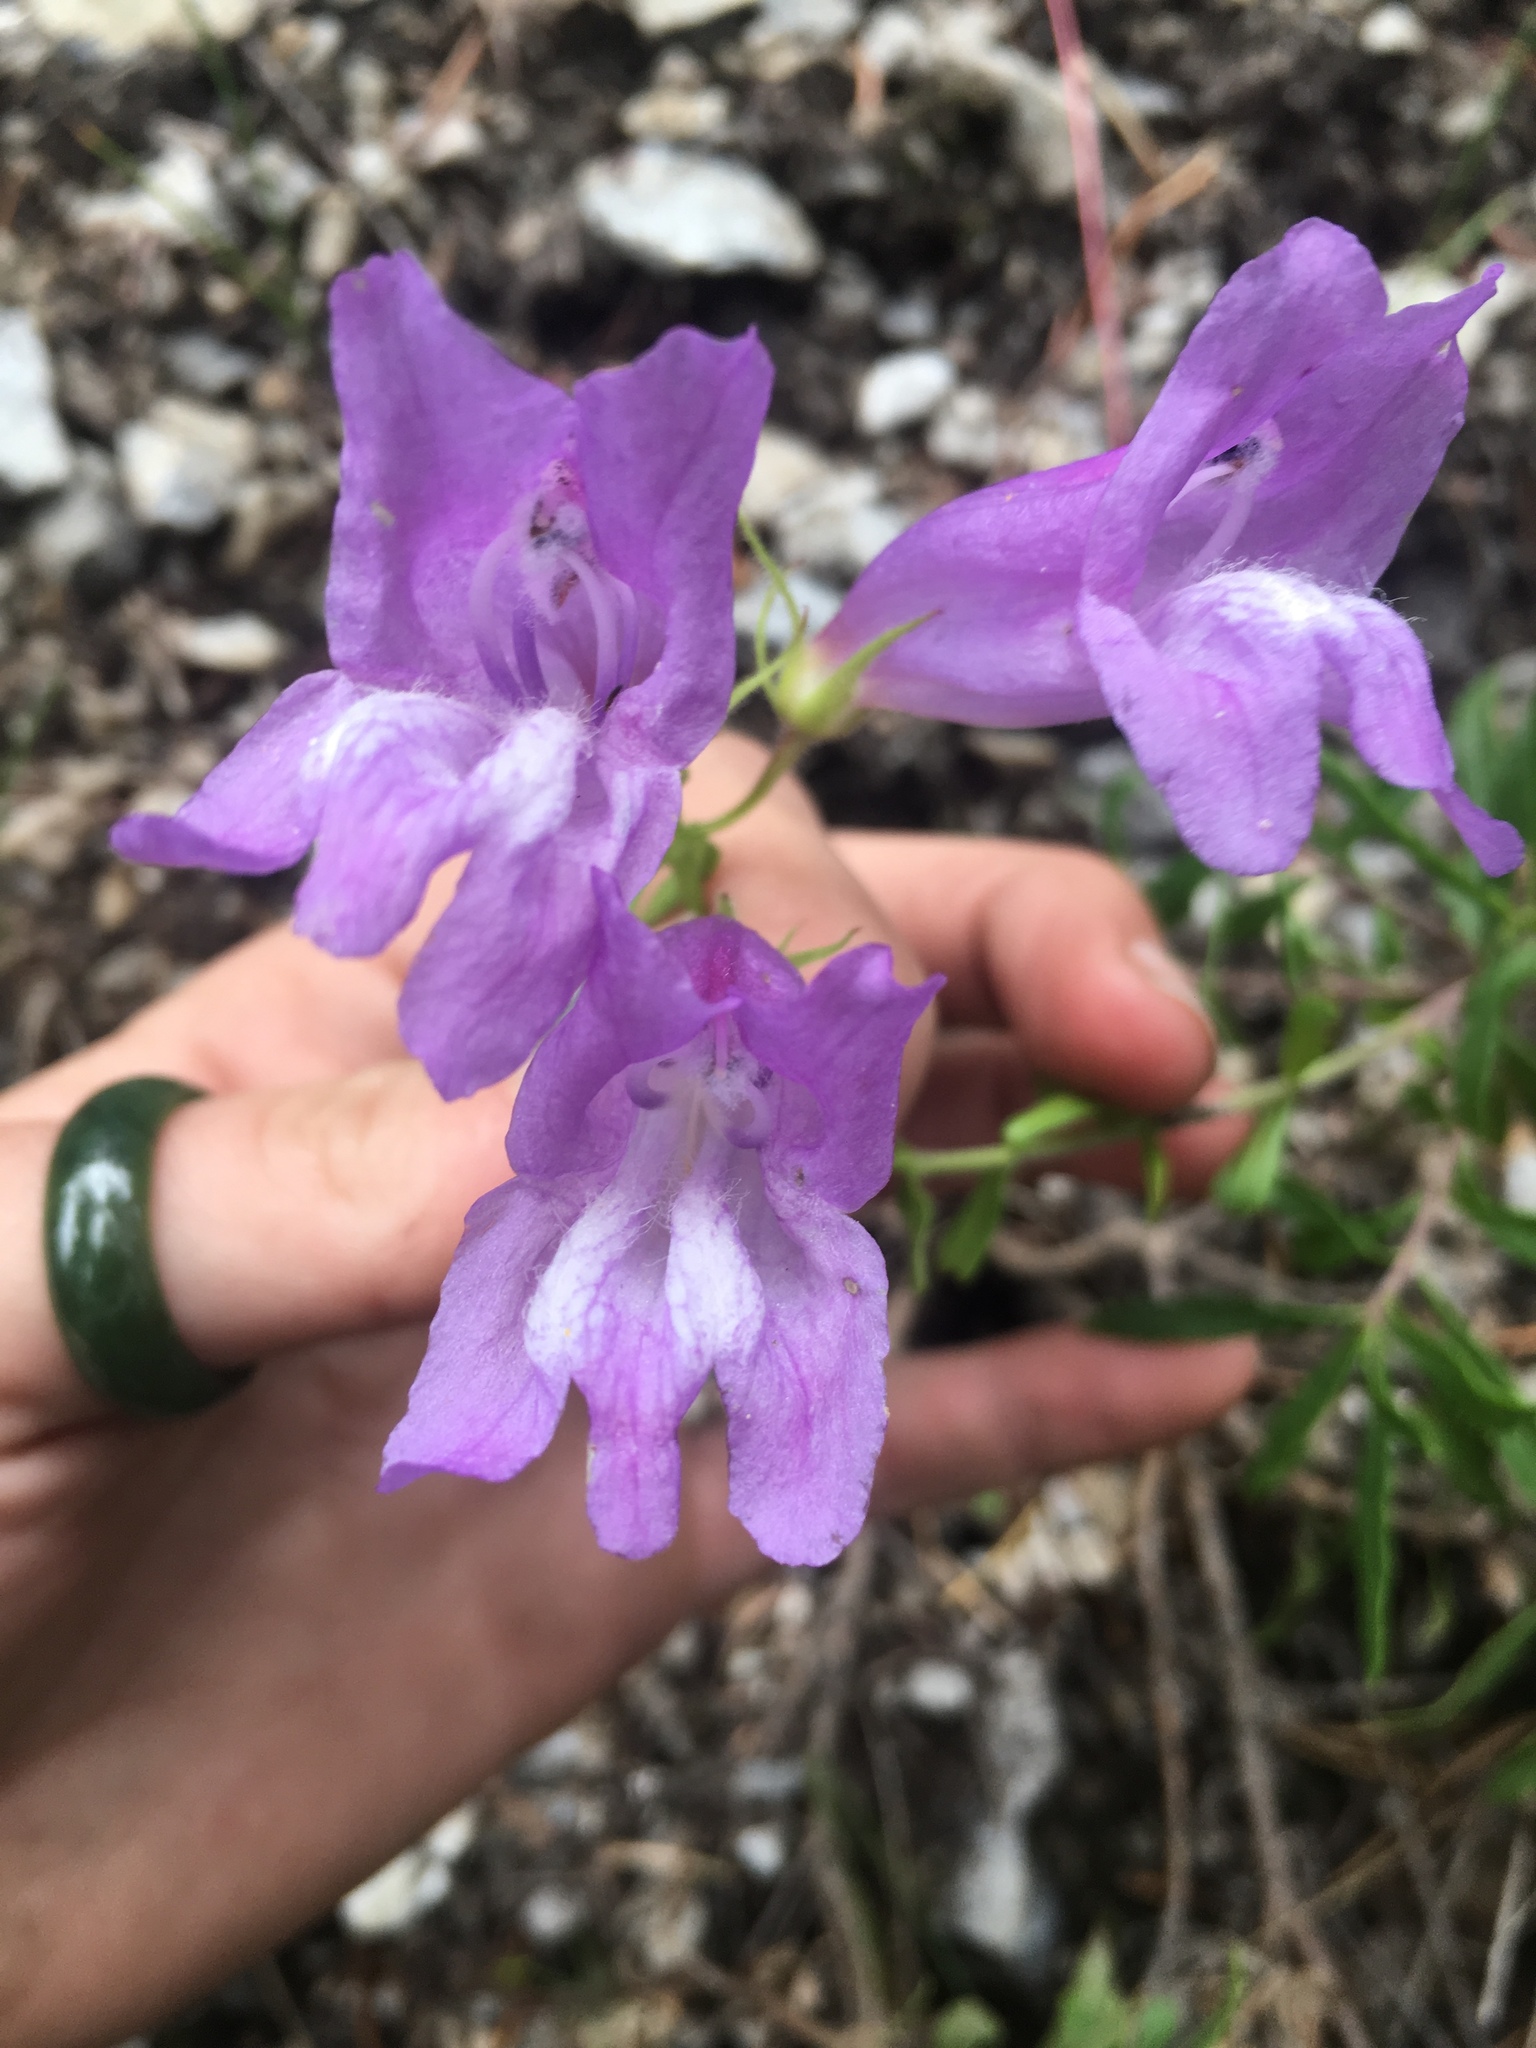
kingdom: Plantae
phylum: Tracheophyta
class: Magnoliopsida
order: Lamiales
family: Plantaginaceae
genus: Penstemon
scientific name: Penstemon fruticosus
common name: Bush penstemon
